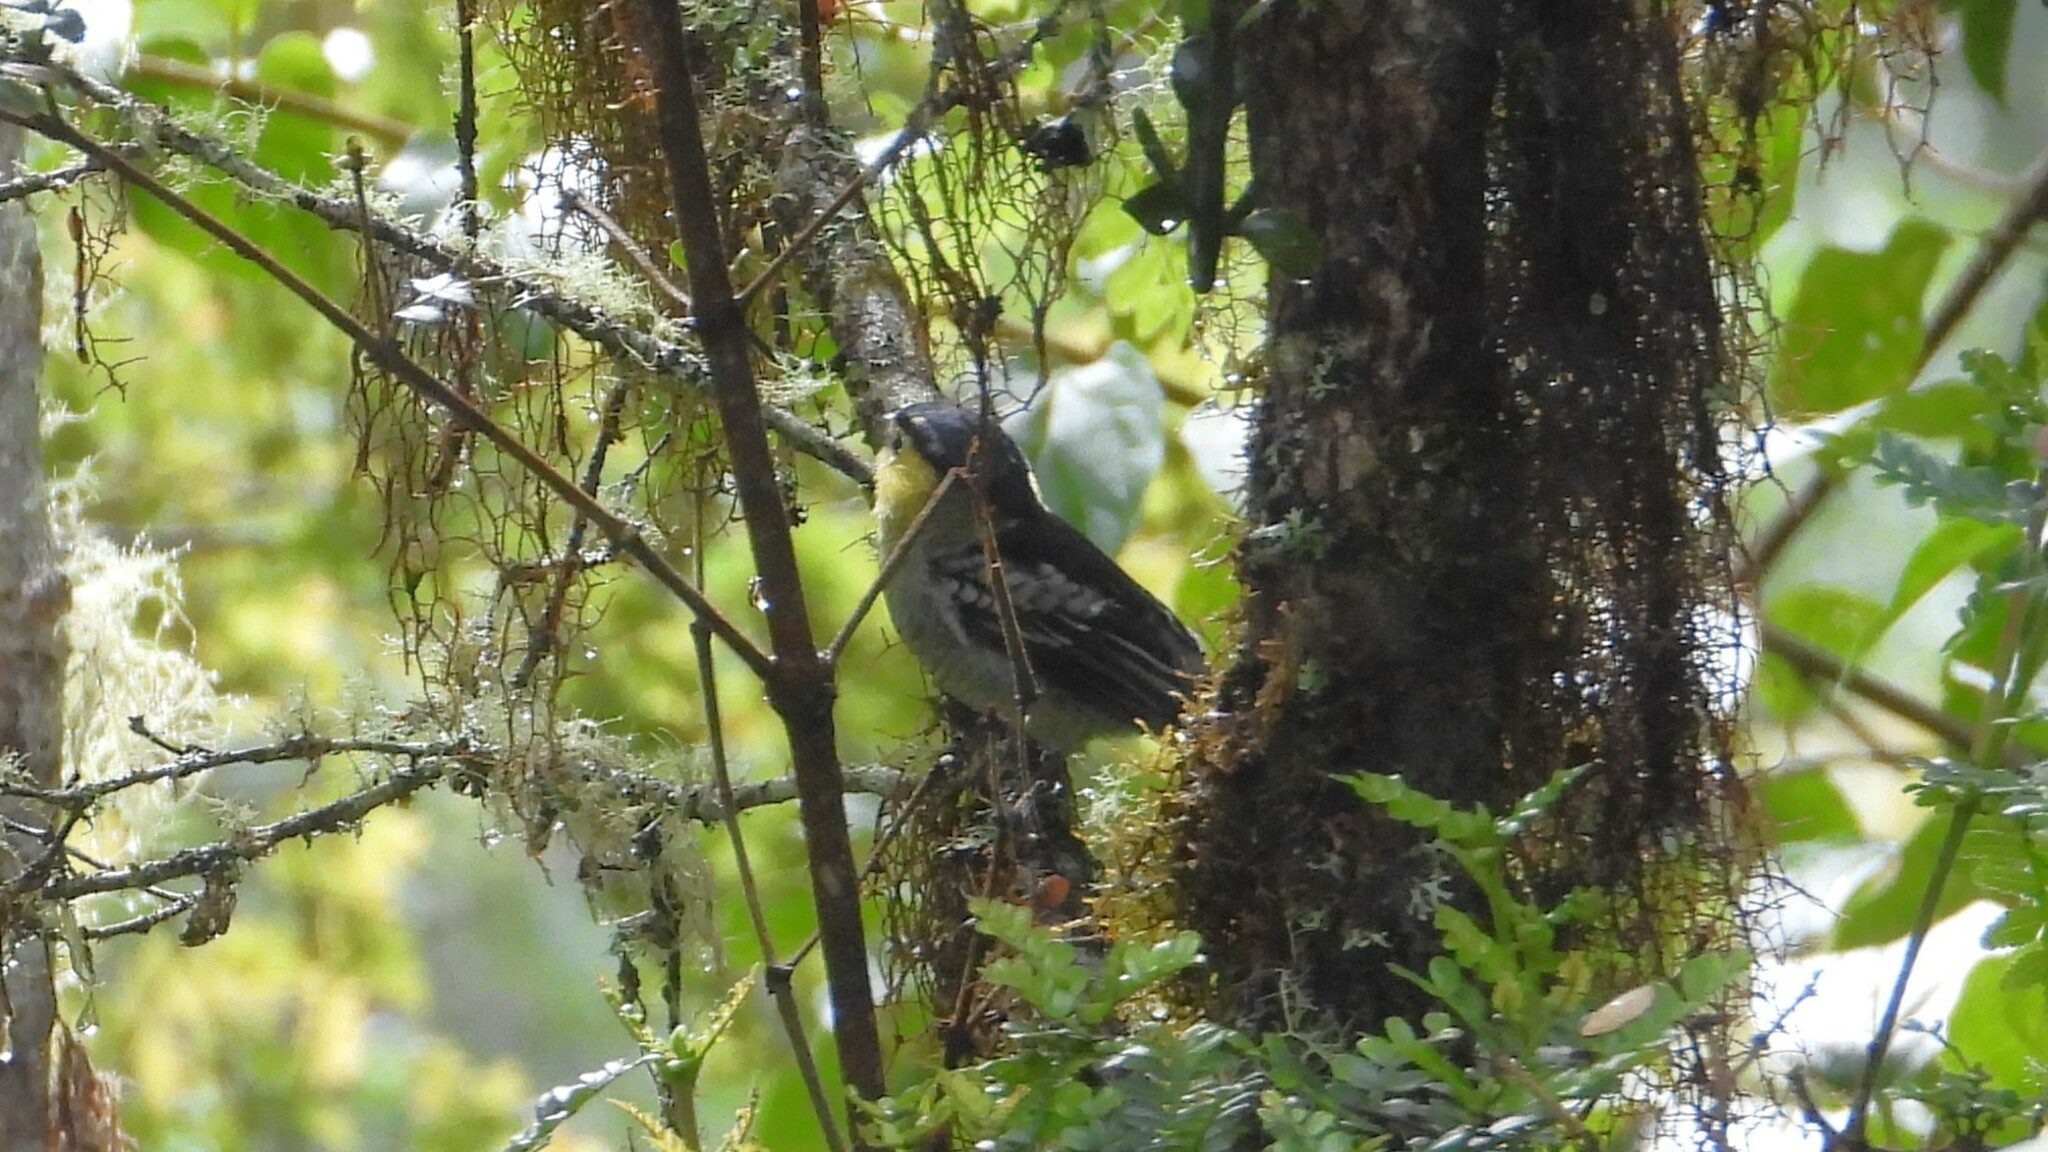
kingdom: Animalia
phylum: Chordata
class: Aves
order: Passeriformes
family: Cotingidae
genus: Pachyramphus
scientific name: Pachyramphus versicolor
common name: Barred becard
